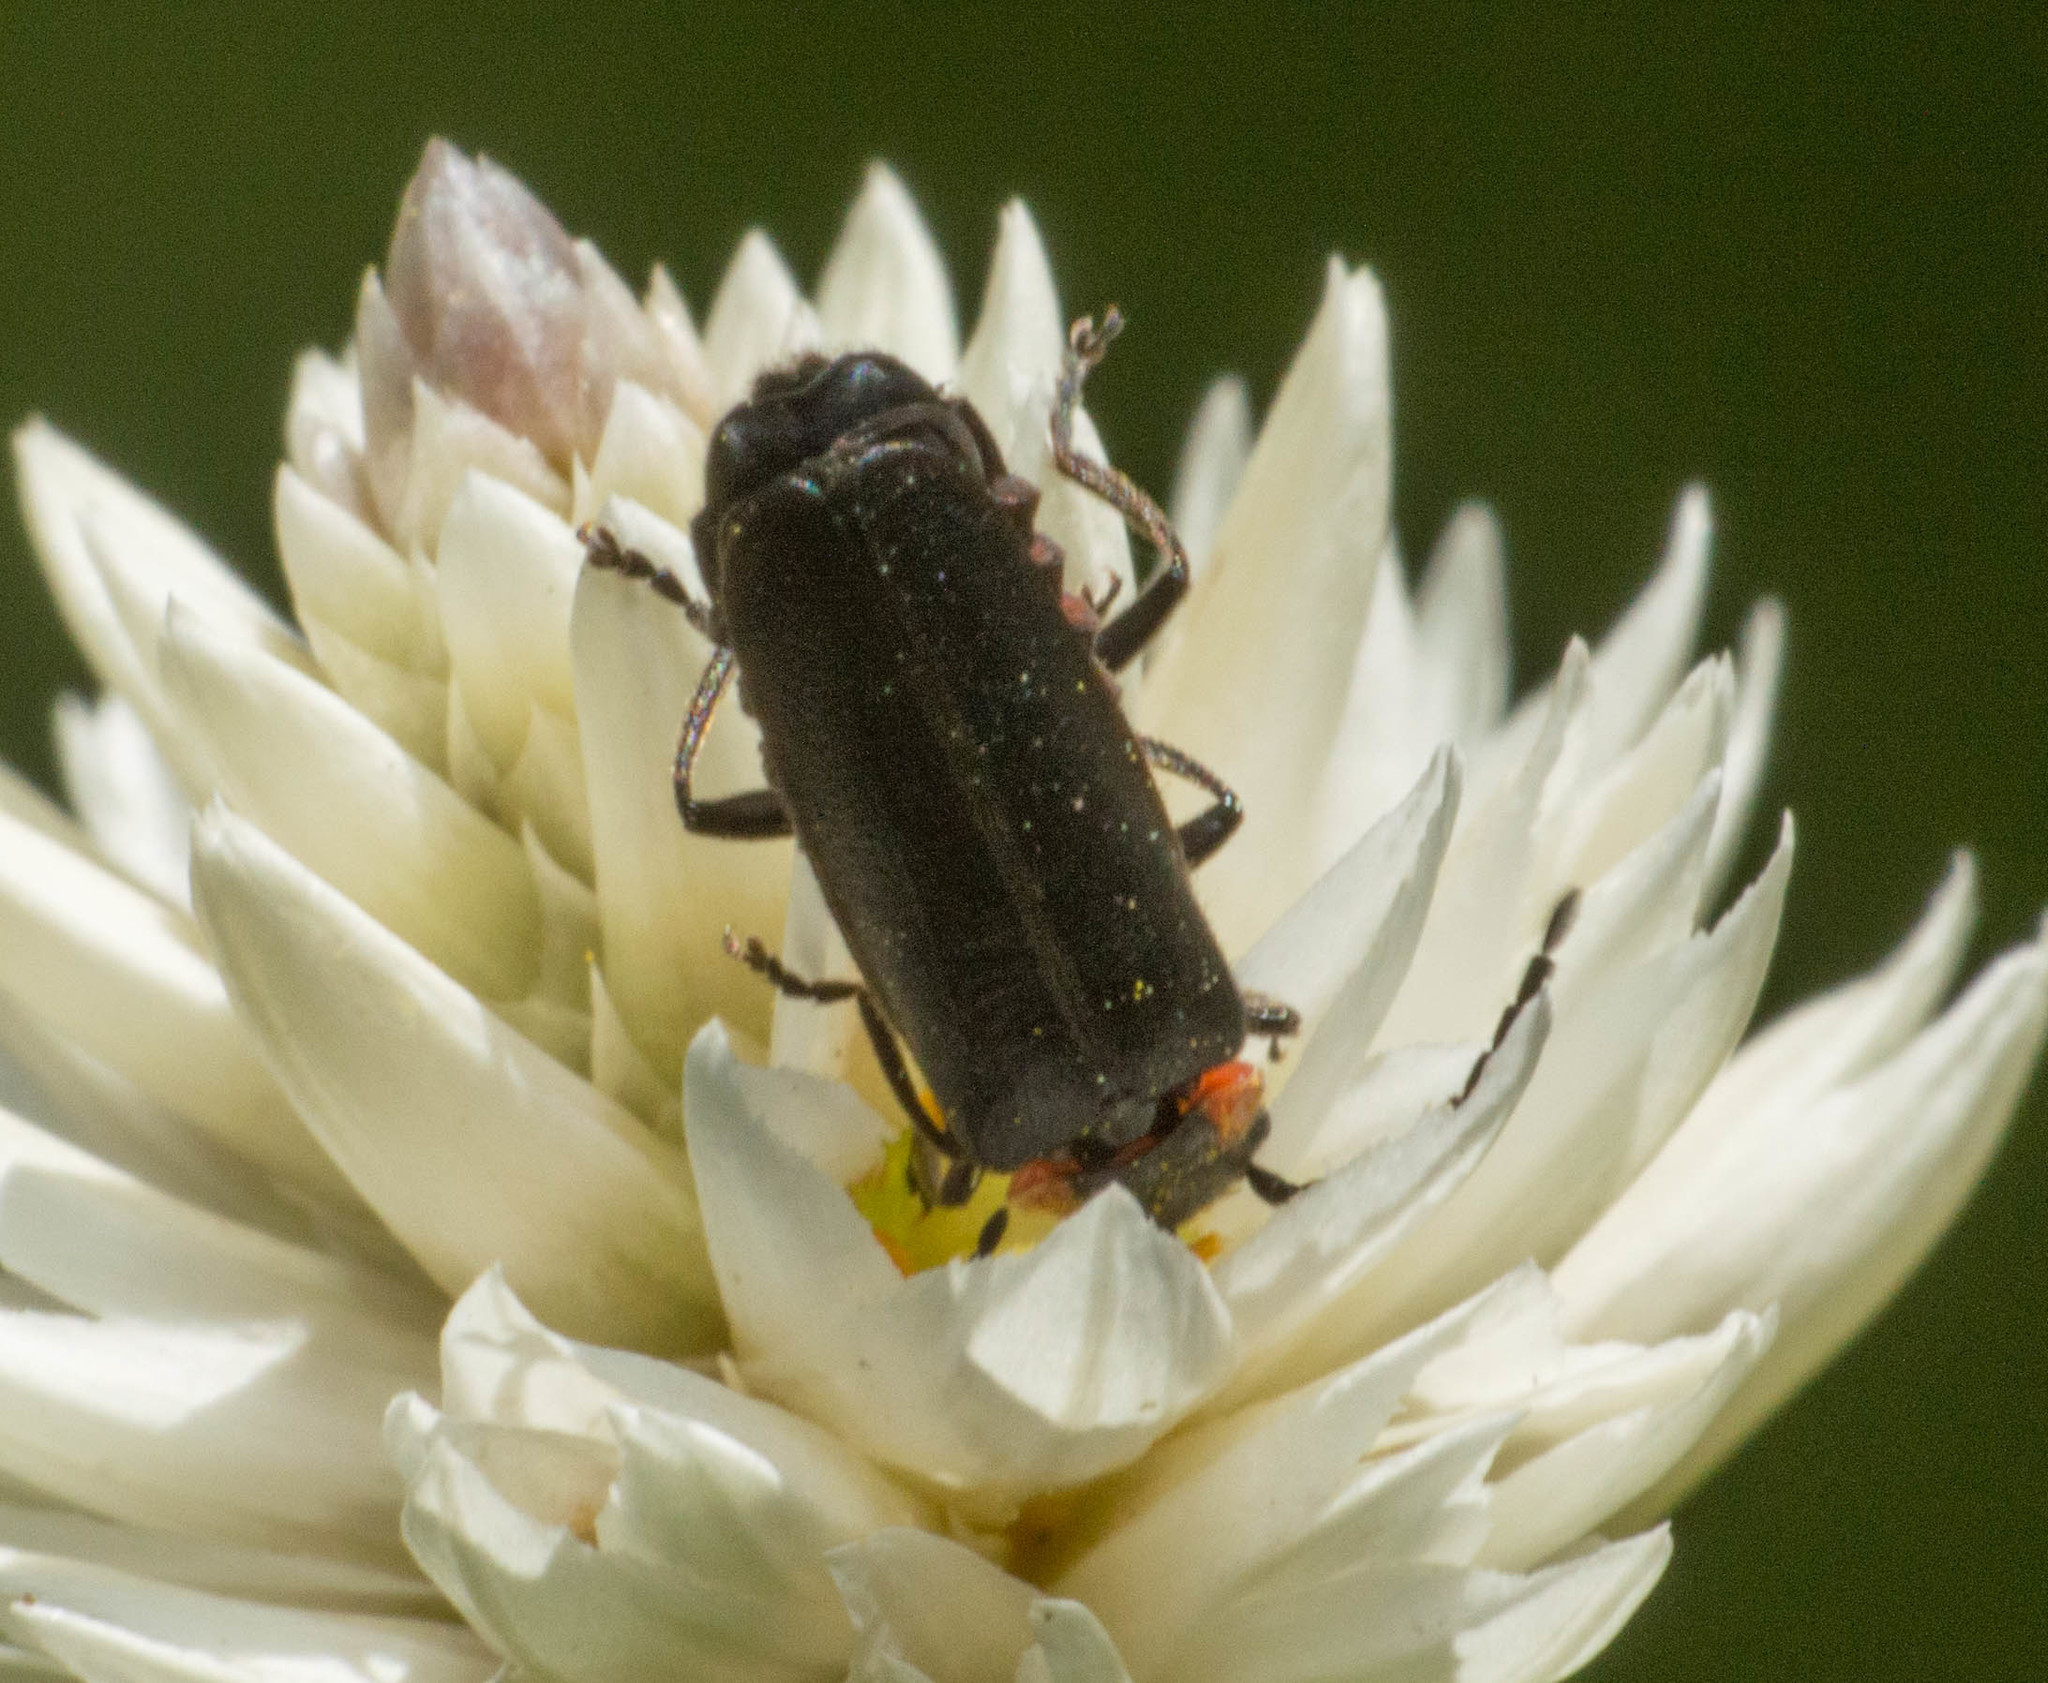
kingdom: Animalia
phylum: Arthropoda
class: Insecta
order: Coleoptera
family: Cantharidae
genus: Polemius
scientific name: Polemius
